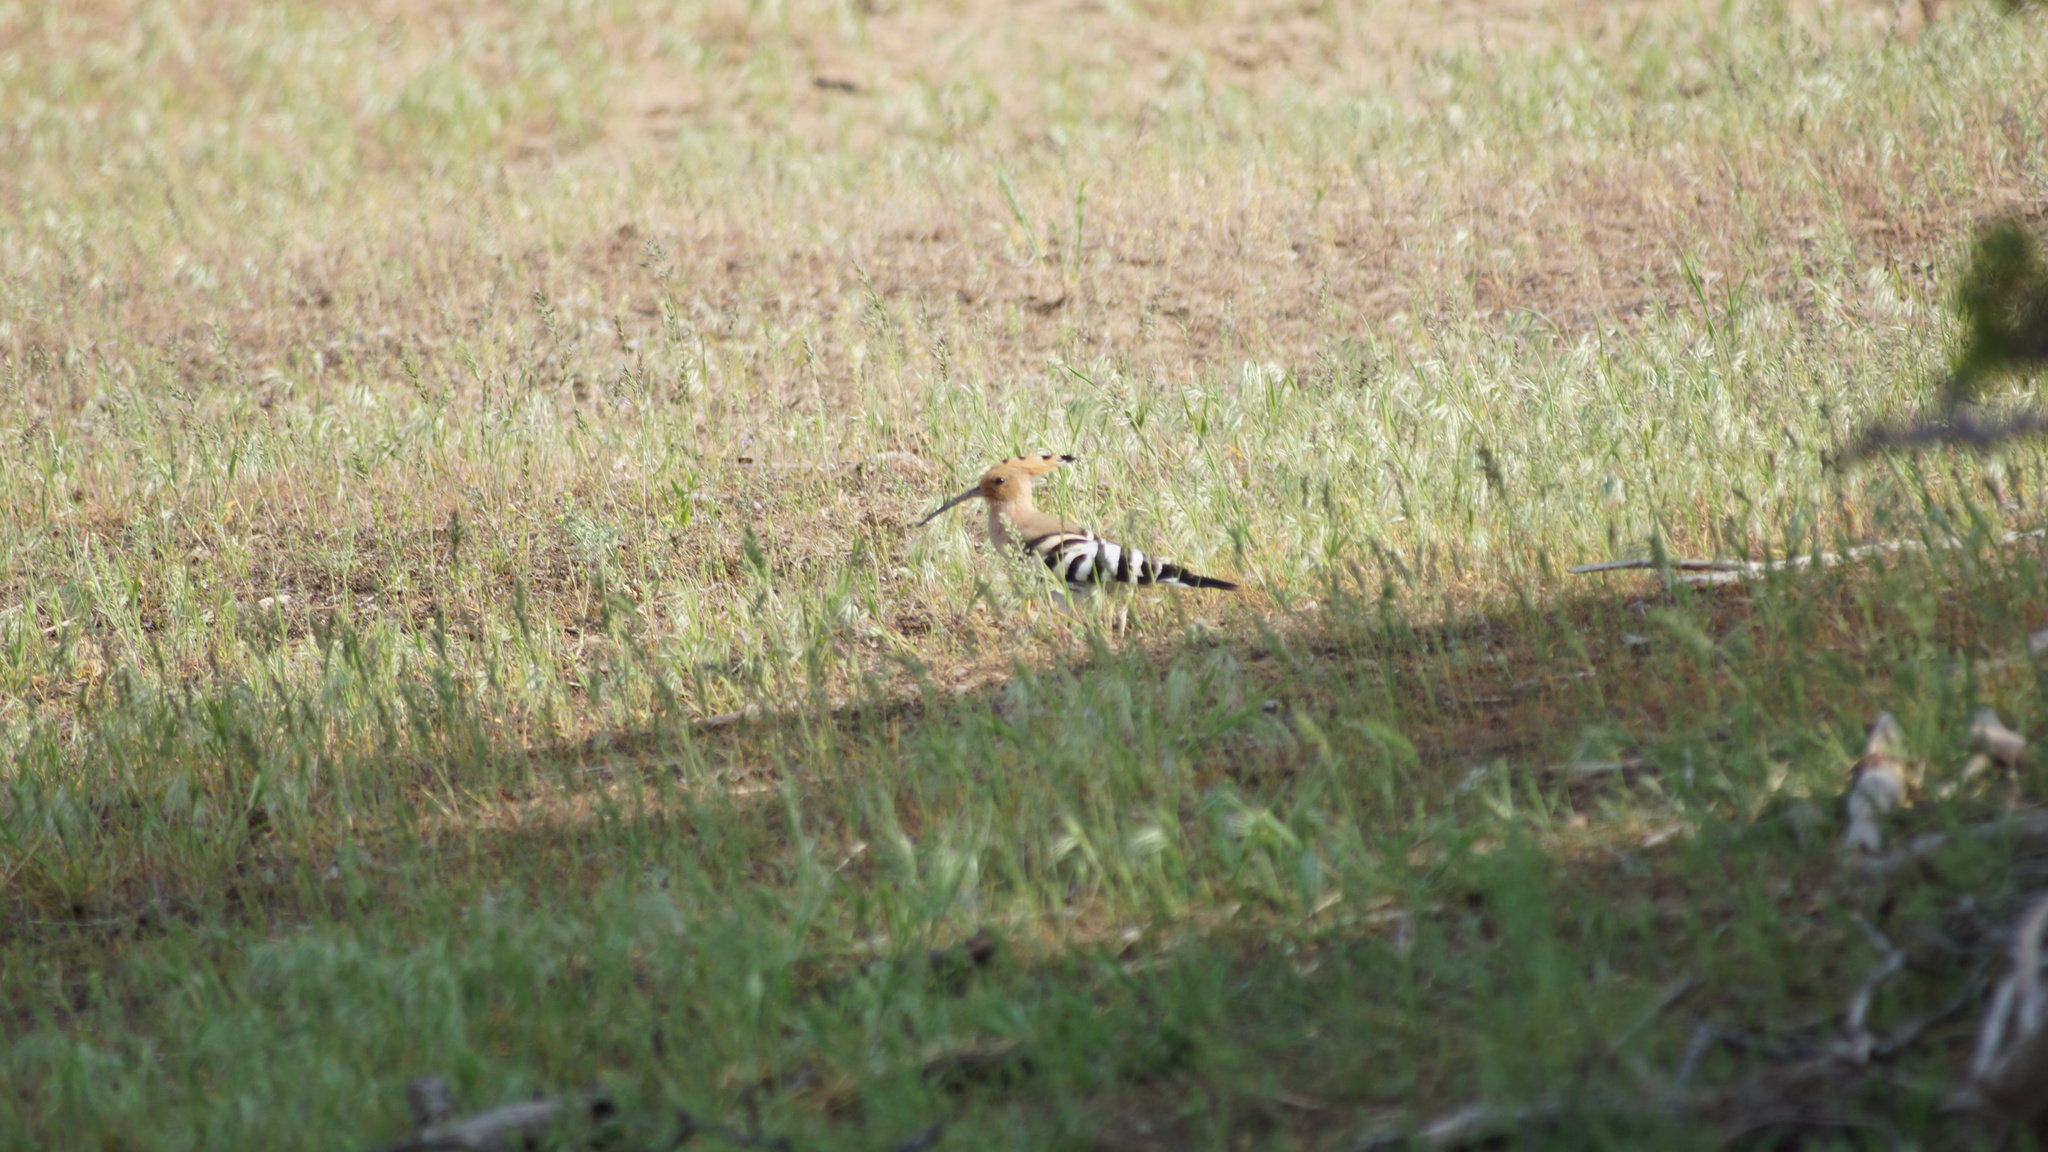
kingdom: Animalia
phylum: Chordata
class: Aves
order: Bucerotiformes
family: Upupidae
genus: Upupa
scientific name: Upupa epops
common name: Eurasian hoopoe
